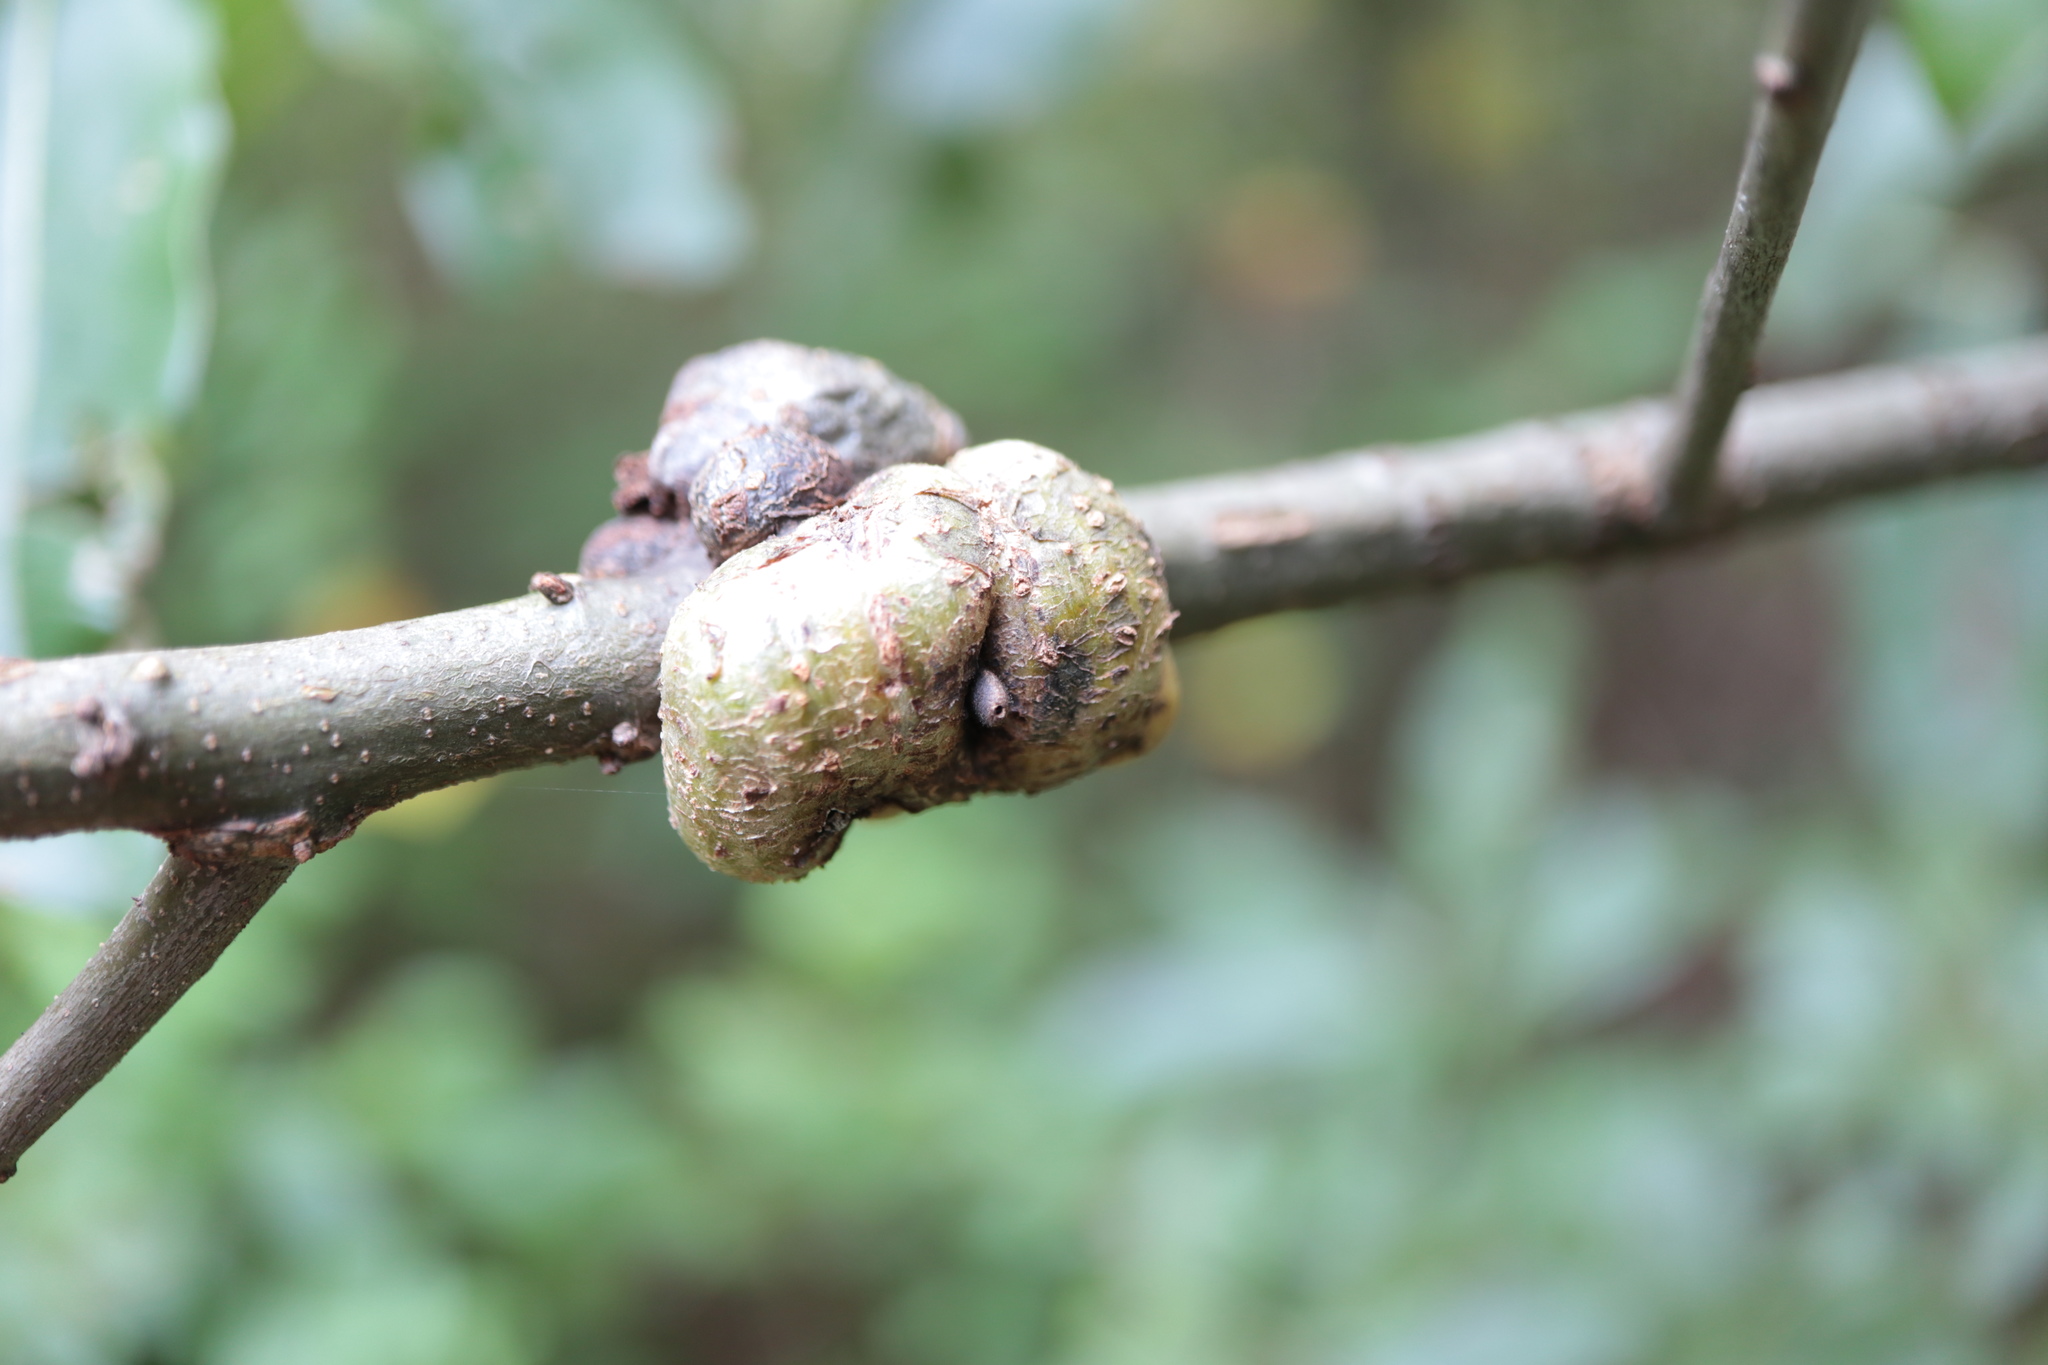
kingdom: Animalia
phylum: Arthropoda
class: Insecta
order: Hymenoptera
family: Cynipidae
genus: Callirhytis
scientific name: Callirhytis
